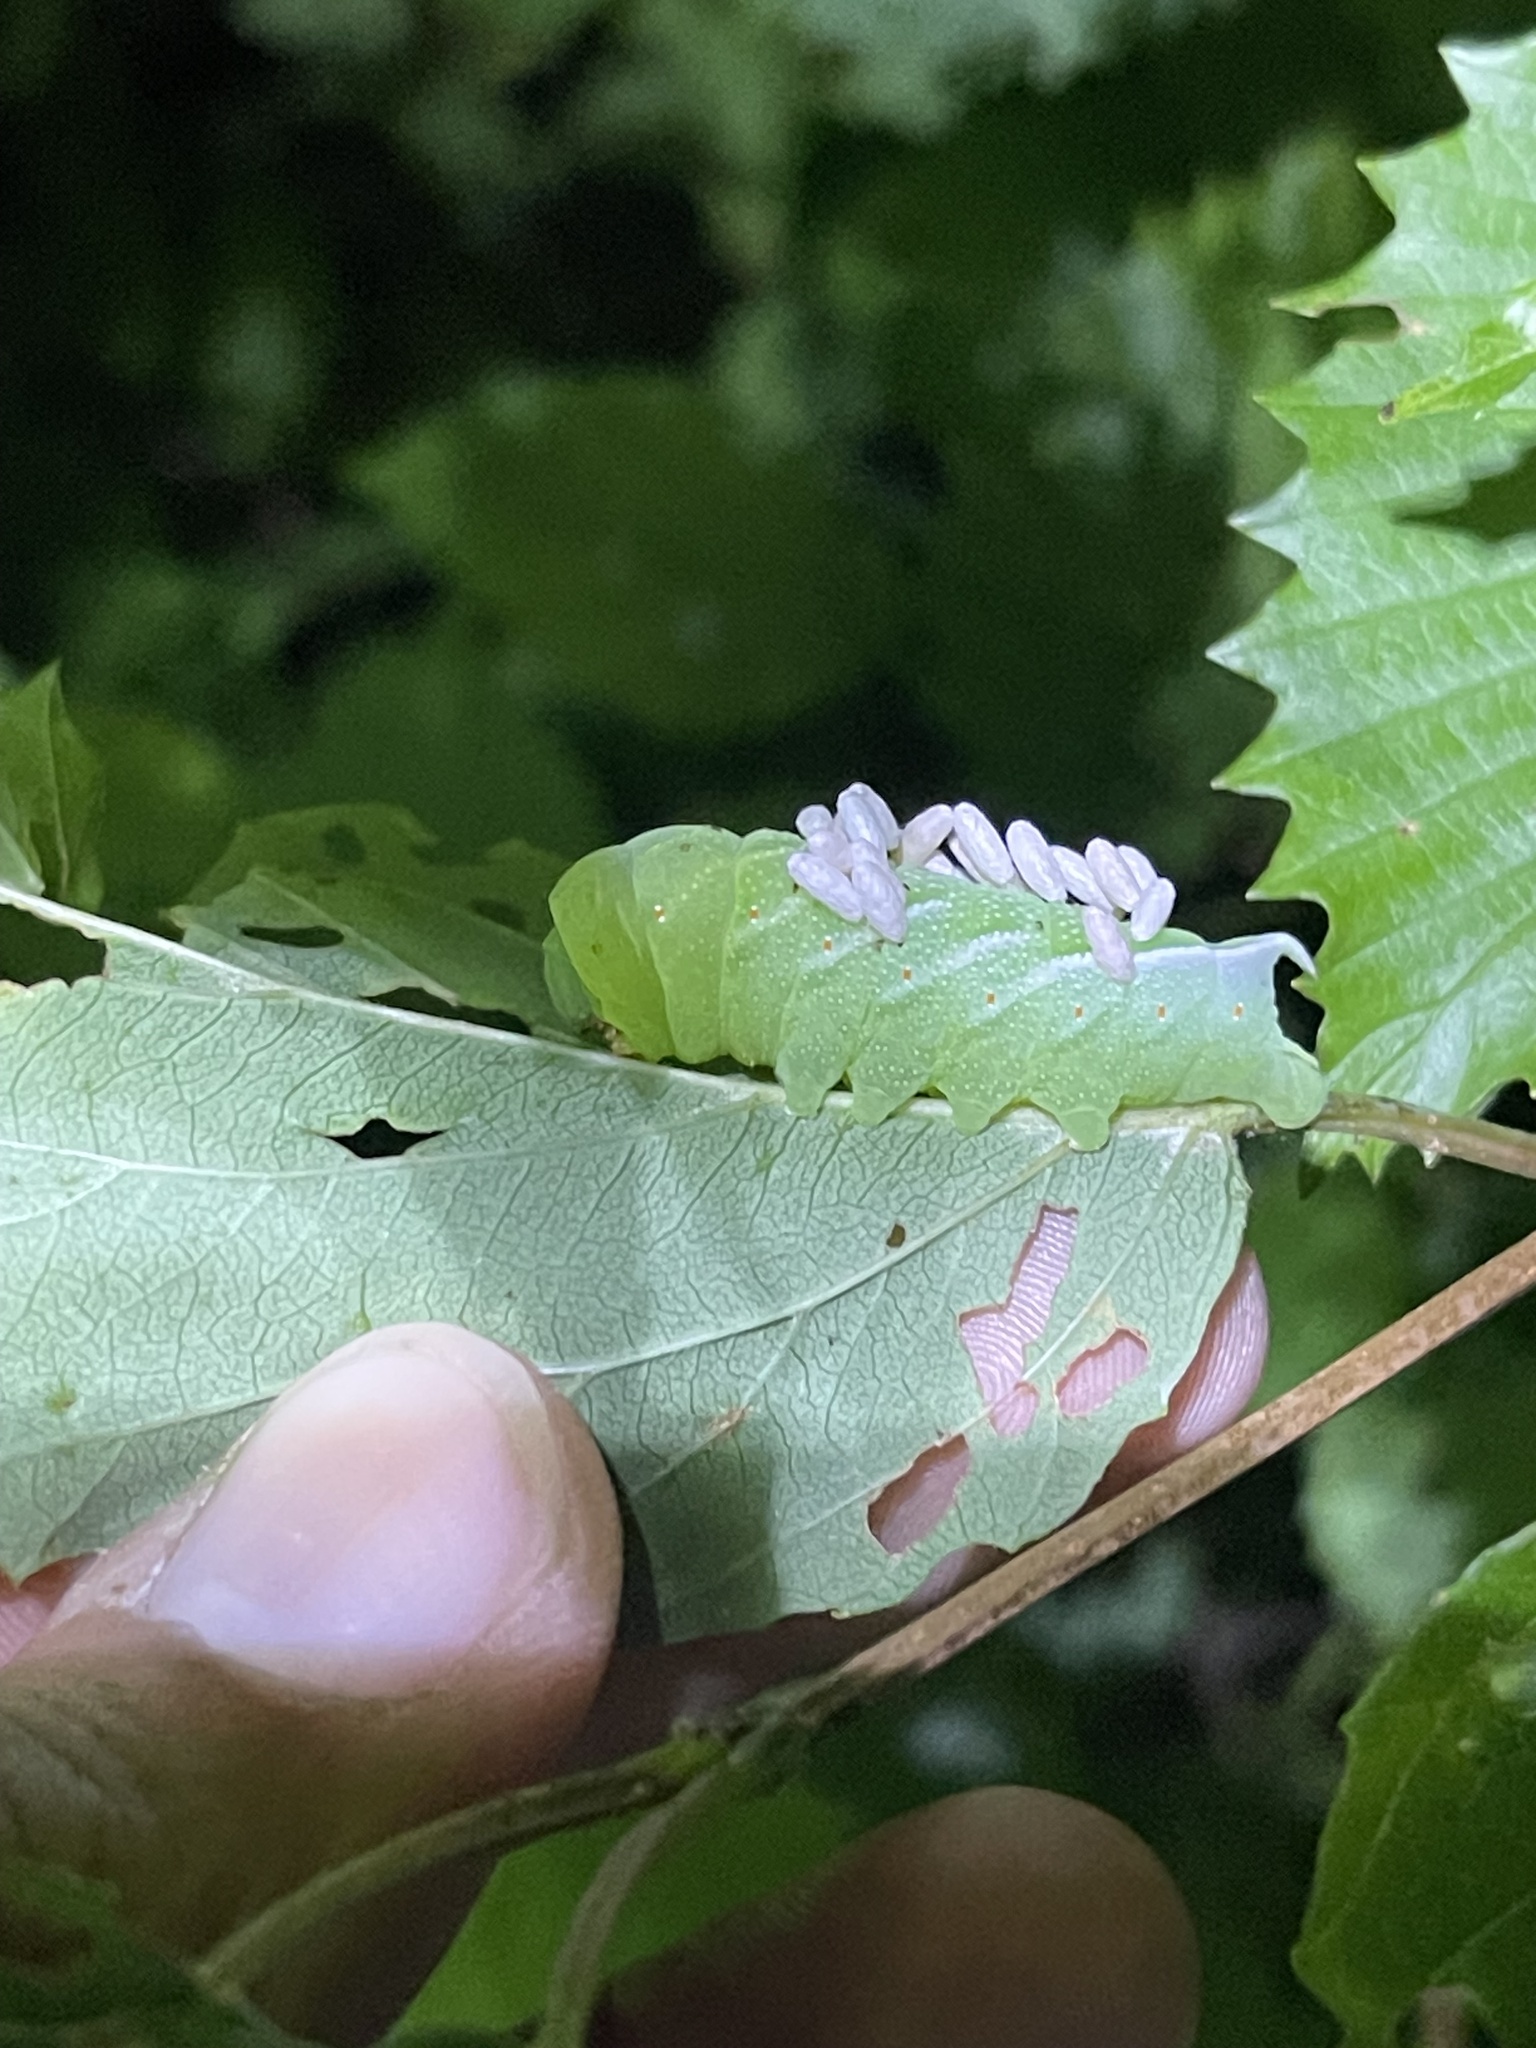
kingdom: Animalia
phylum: Arthropoda
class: Insecta
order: Lepidoptera
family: Sphingidae
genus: Darapsa
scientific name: Darapsa choerilus
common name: Azalea sphinx
